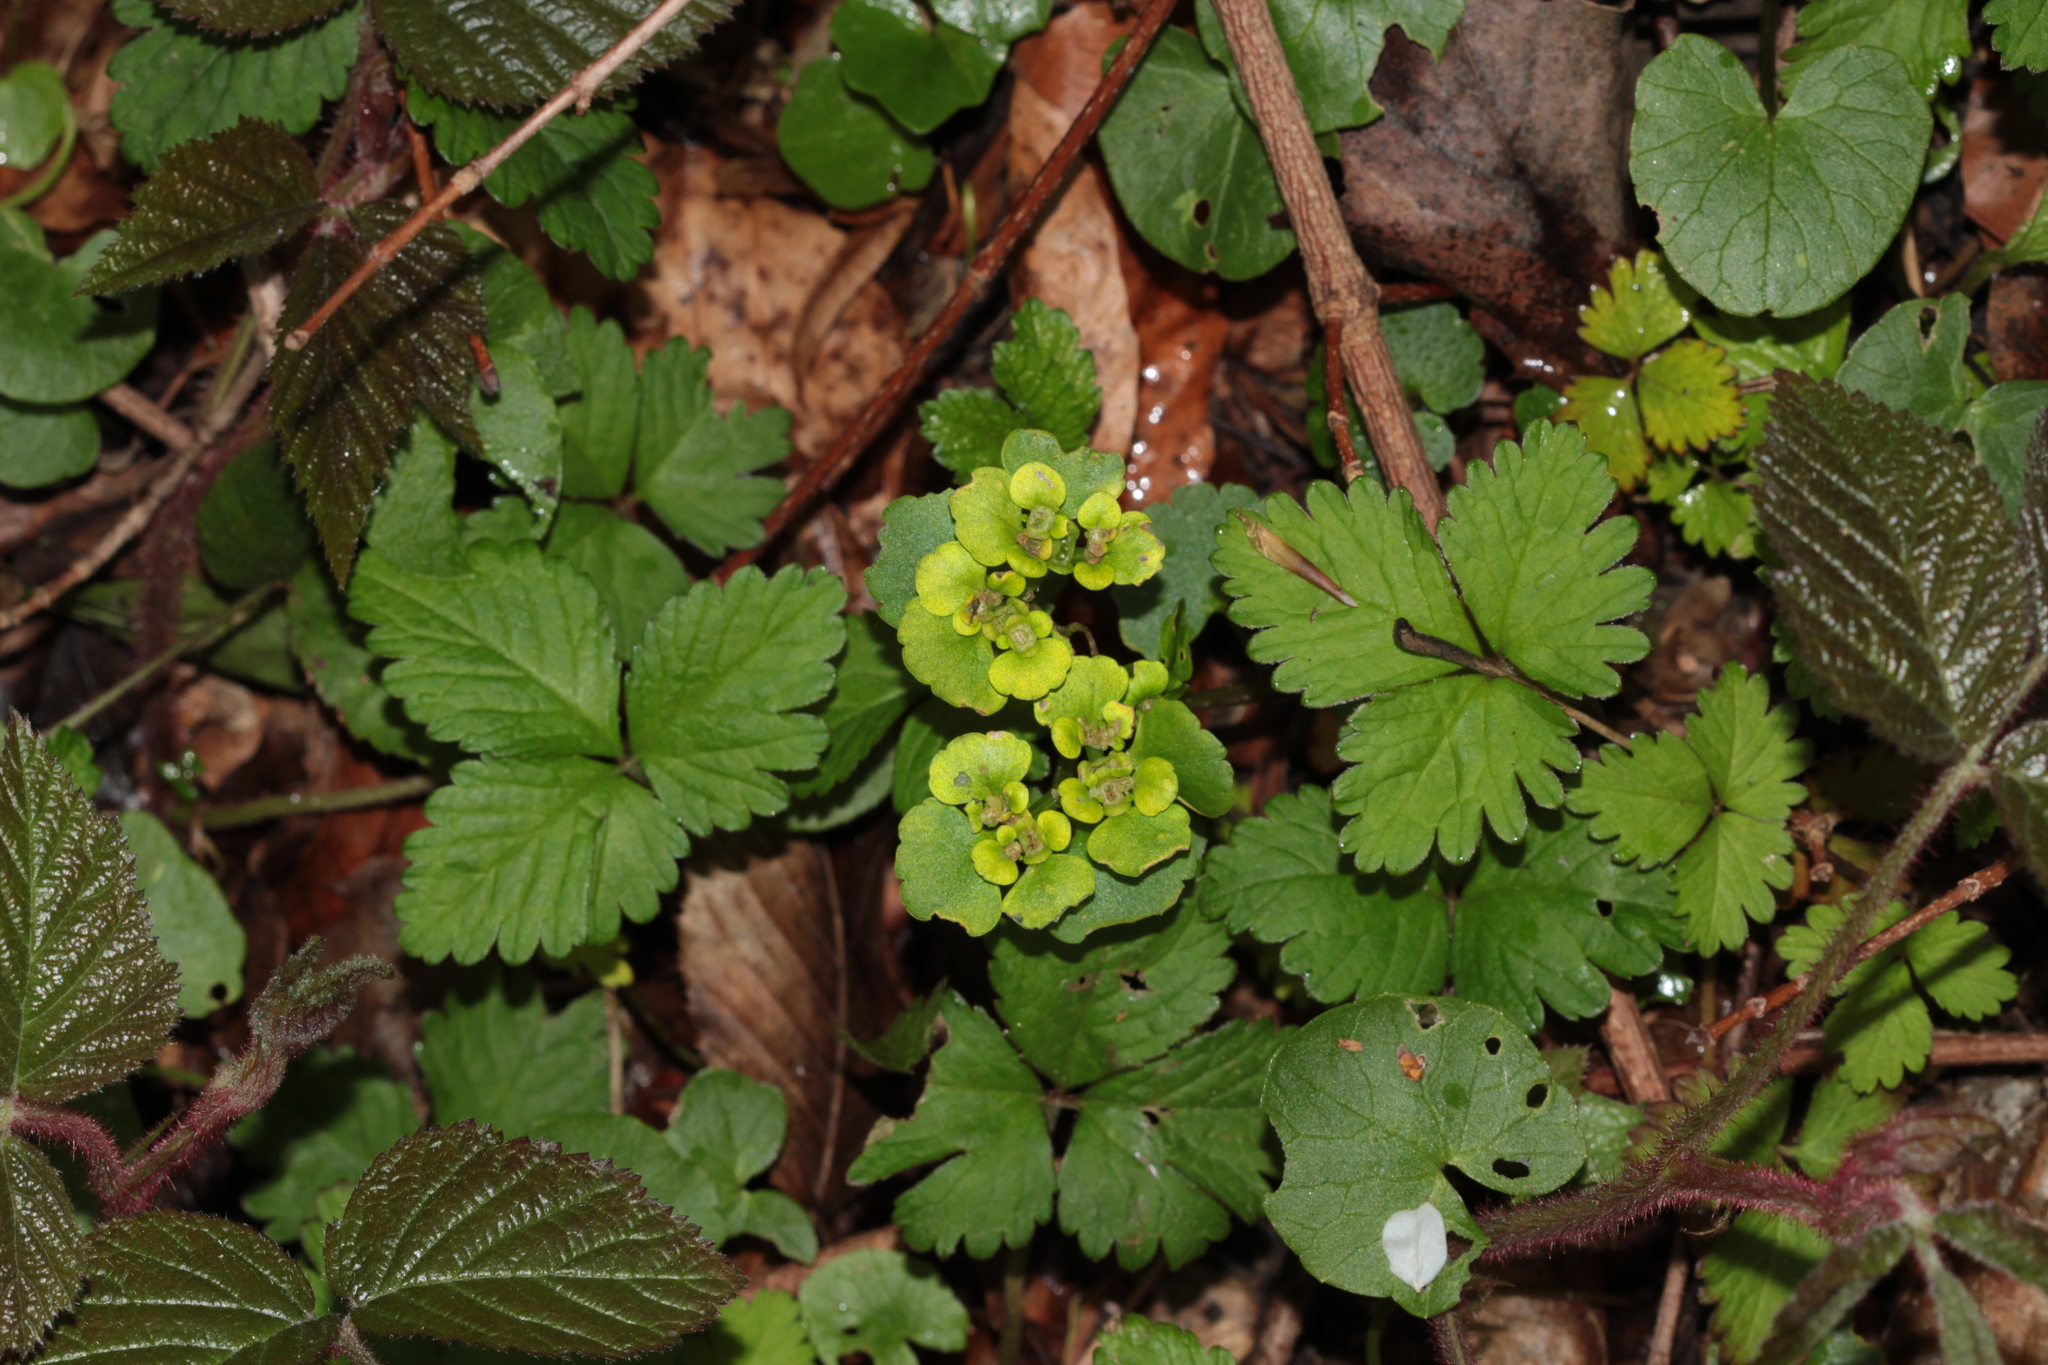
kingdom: Plantae
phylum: Tracheophyta
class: Magnoliopsida
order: Saxifragales
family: Saxifragaceae
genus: Chrysosplenium
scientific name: Chrysosplenium alternifolium
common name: Alternate-leaved golden-saxifrage
